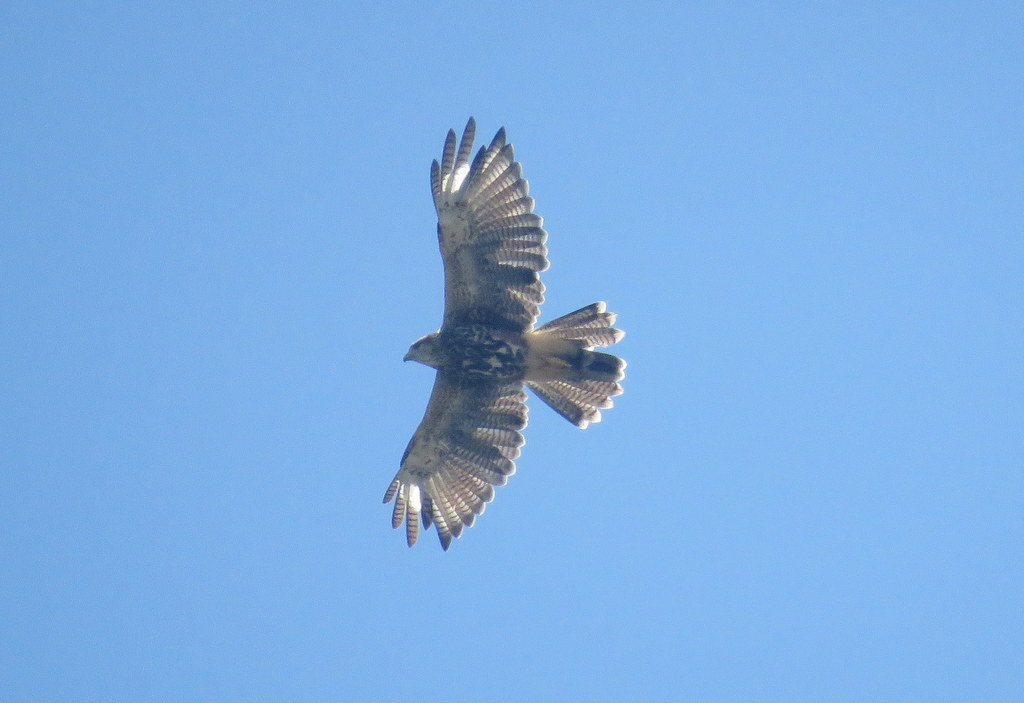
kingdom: Animalia
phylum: Chordata
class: Aves
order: Accipitriformes
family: Accipitridae
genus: Parabuteo
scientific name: Parabuteo unicinctus
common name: Harris's hawk
